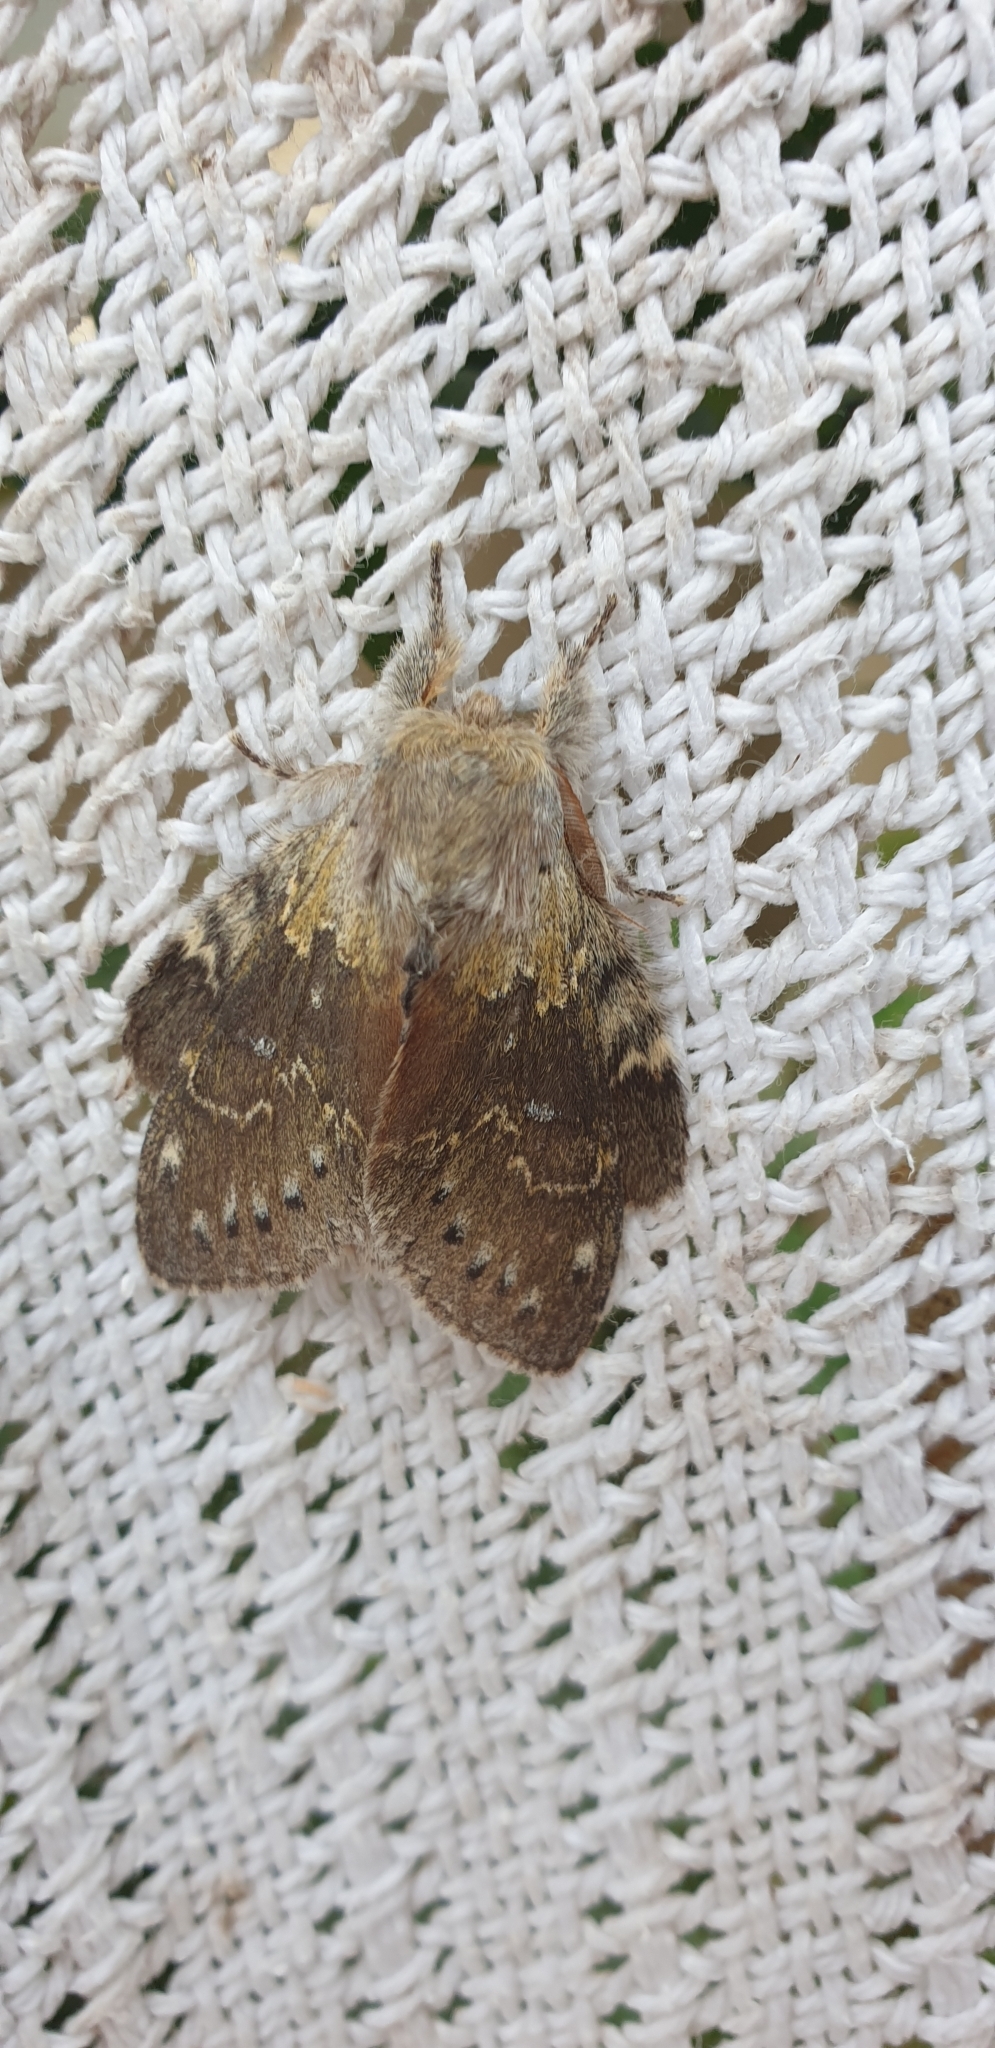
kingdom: Animalia
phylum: Arthropoda
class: Insecta
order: Lepidoptera
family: Notodontidae
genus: Stauropus
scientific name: Stauropus fagi
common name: Lobster moth
